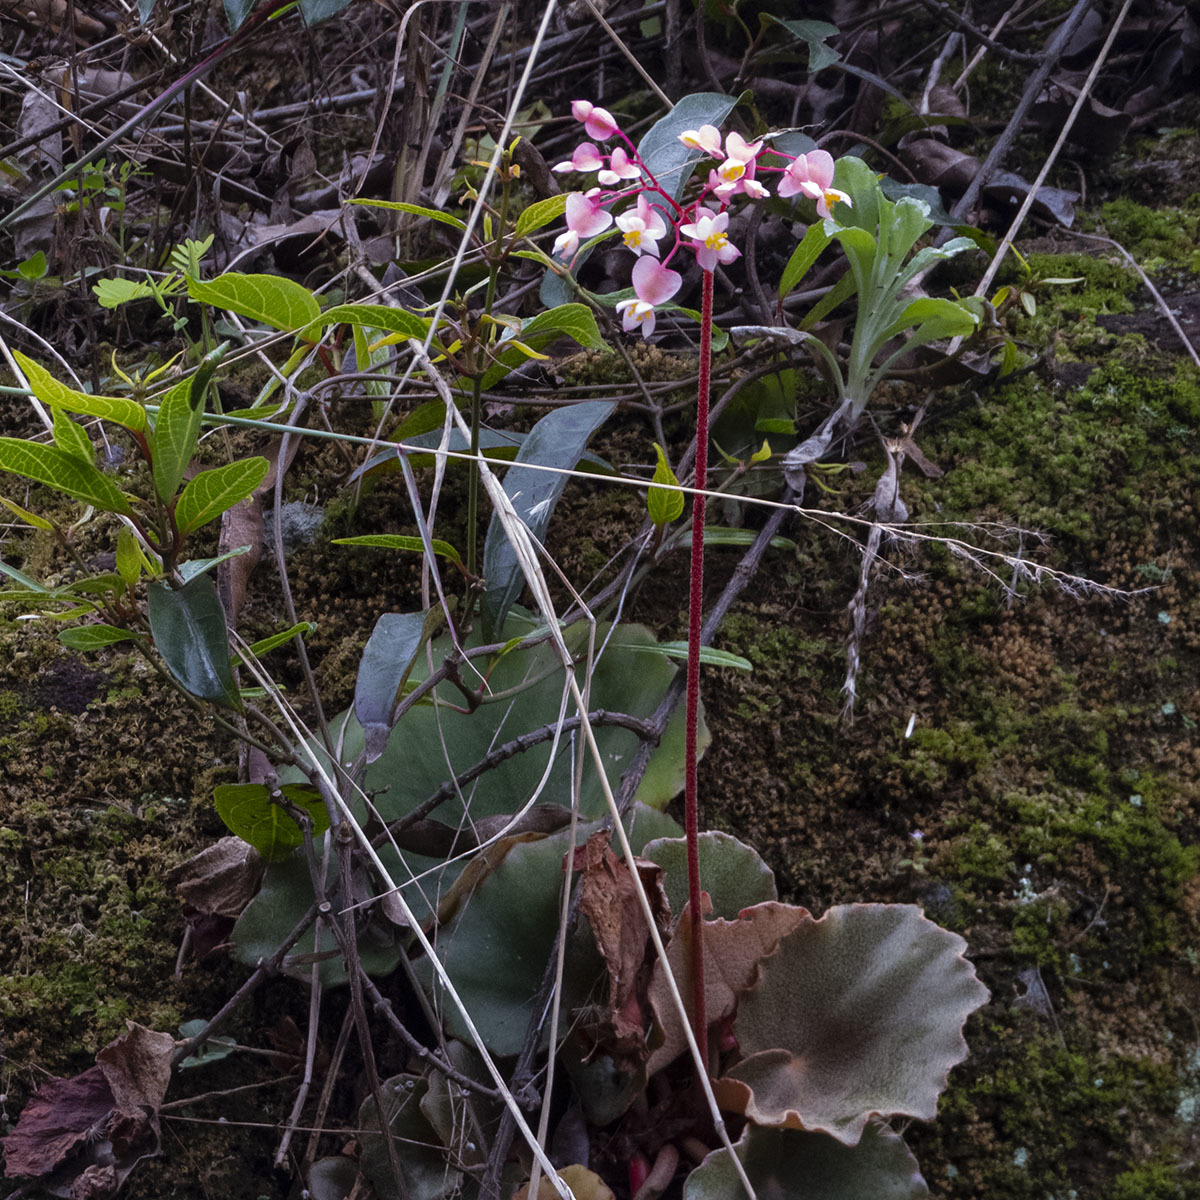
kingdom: Plantae
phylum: Tracheophyta
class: Magnoliopsida
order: Cucurbitales
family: Begoniaceae
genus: Begonia
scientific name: Begonia floccifera
